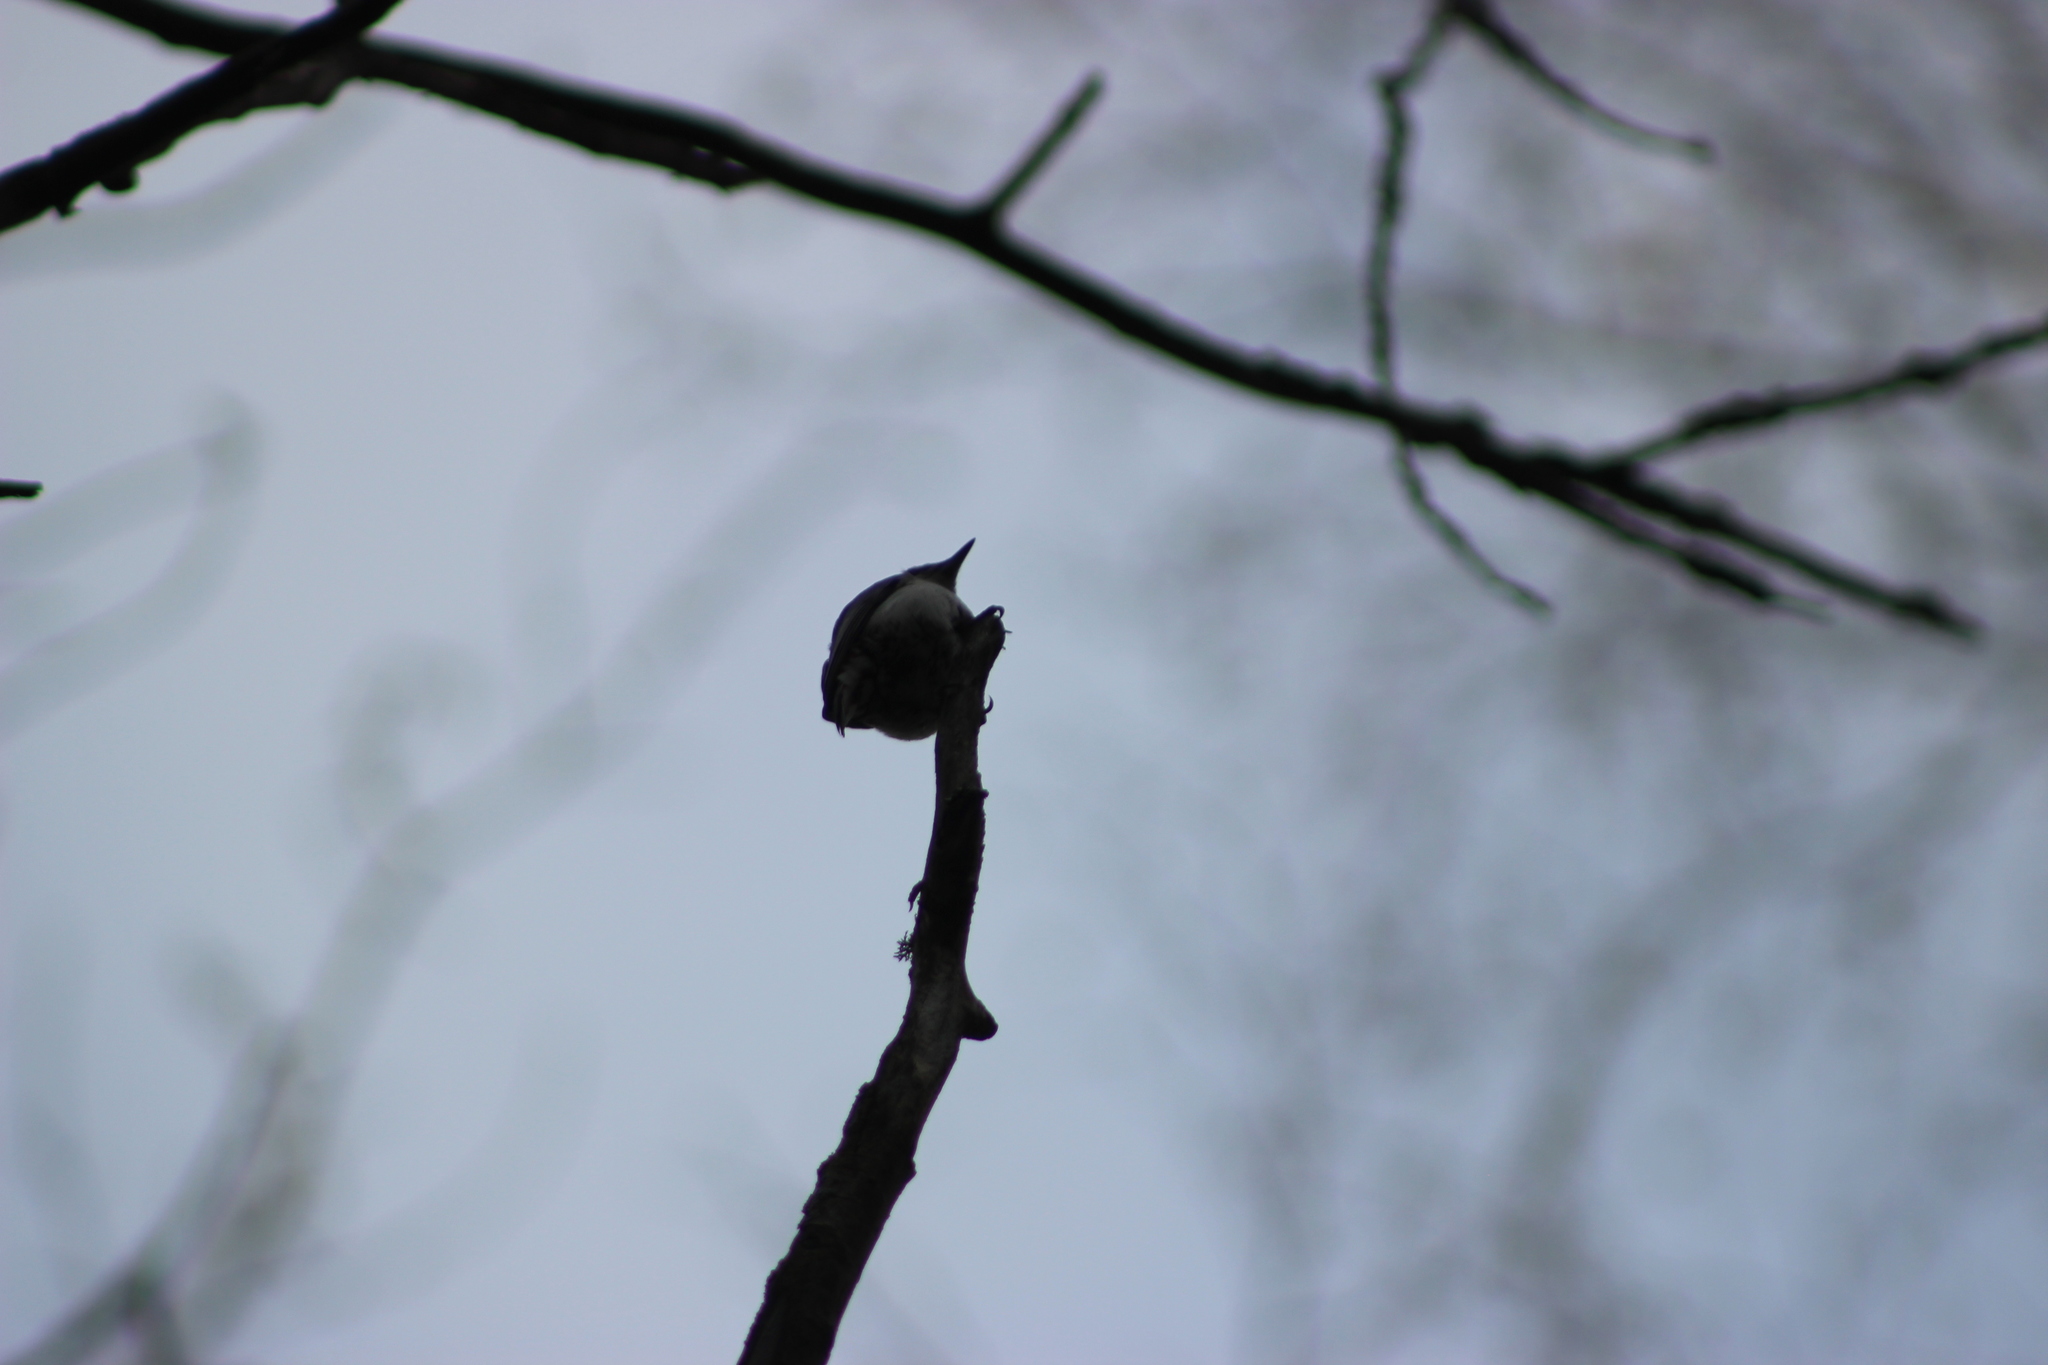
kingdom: Animalia
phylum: Chordata
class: Aves
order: Passeriformes
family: Sittidae
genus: Sitta
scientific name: Sitta europaea
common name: Eurasian nuthatch
